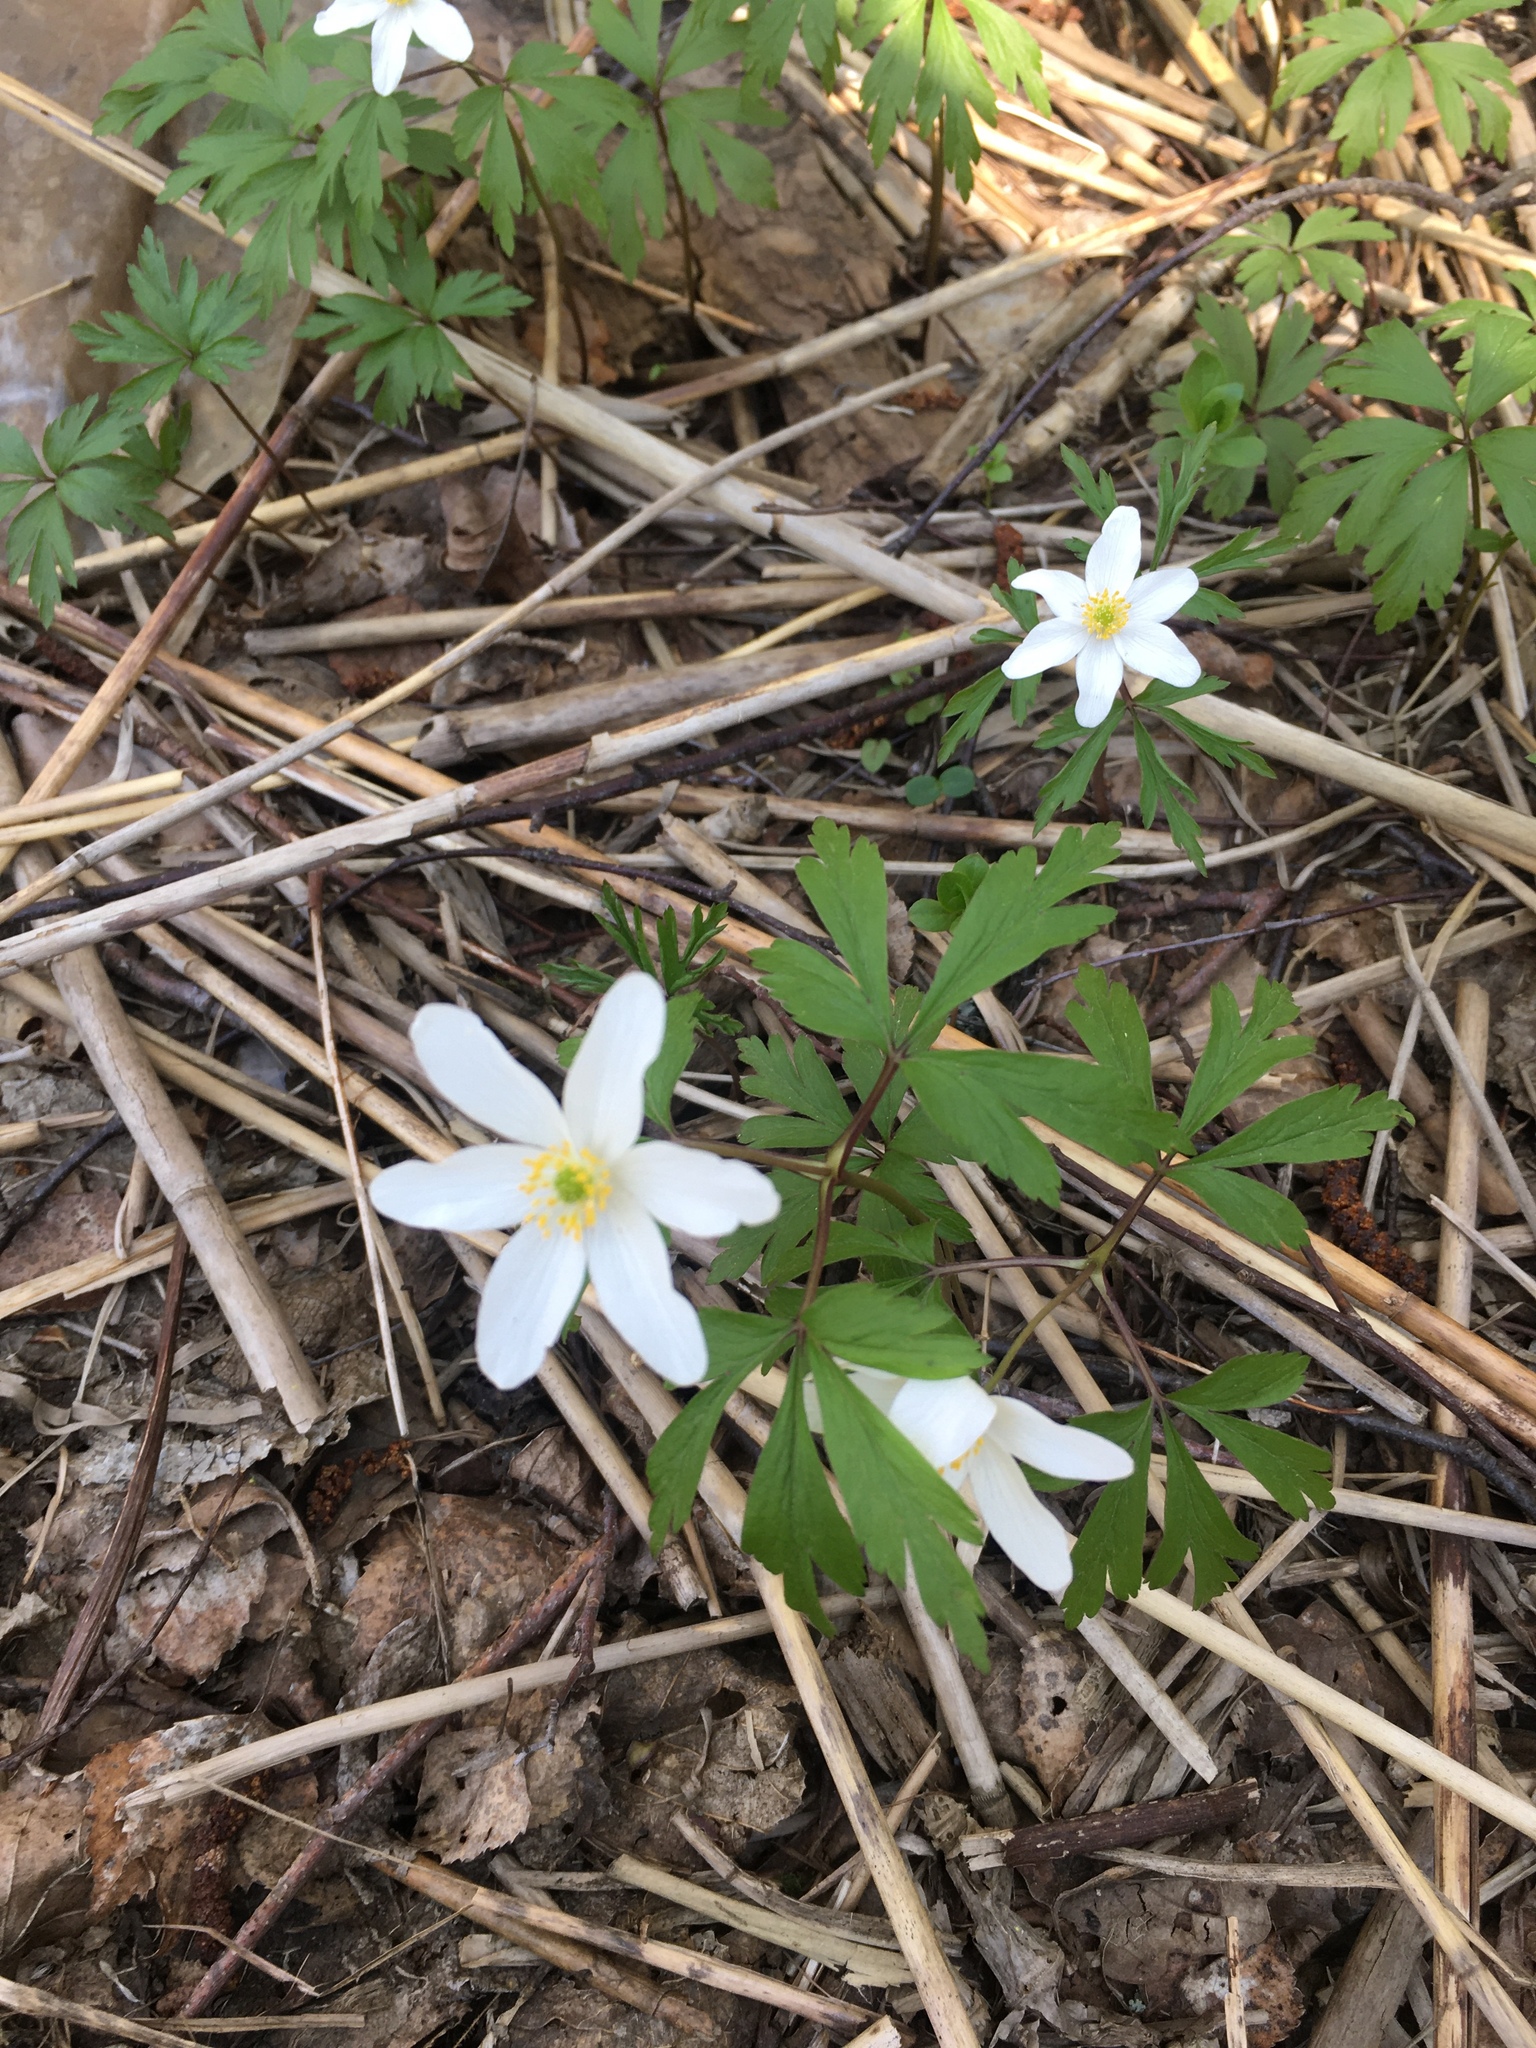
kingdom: Plantae
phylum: Tracheophyta
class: Magnoliopsida
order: Ranunculales
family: Ranunculaceae
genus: Anemone
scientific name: Anemone nemorosa
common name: Wood anemone
